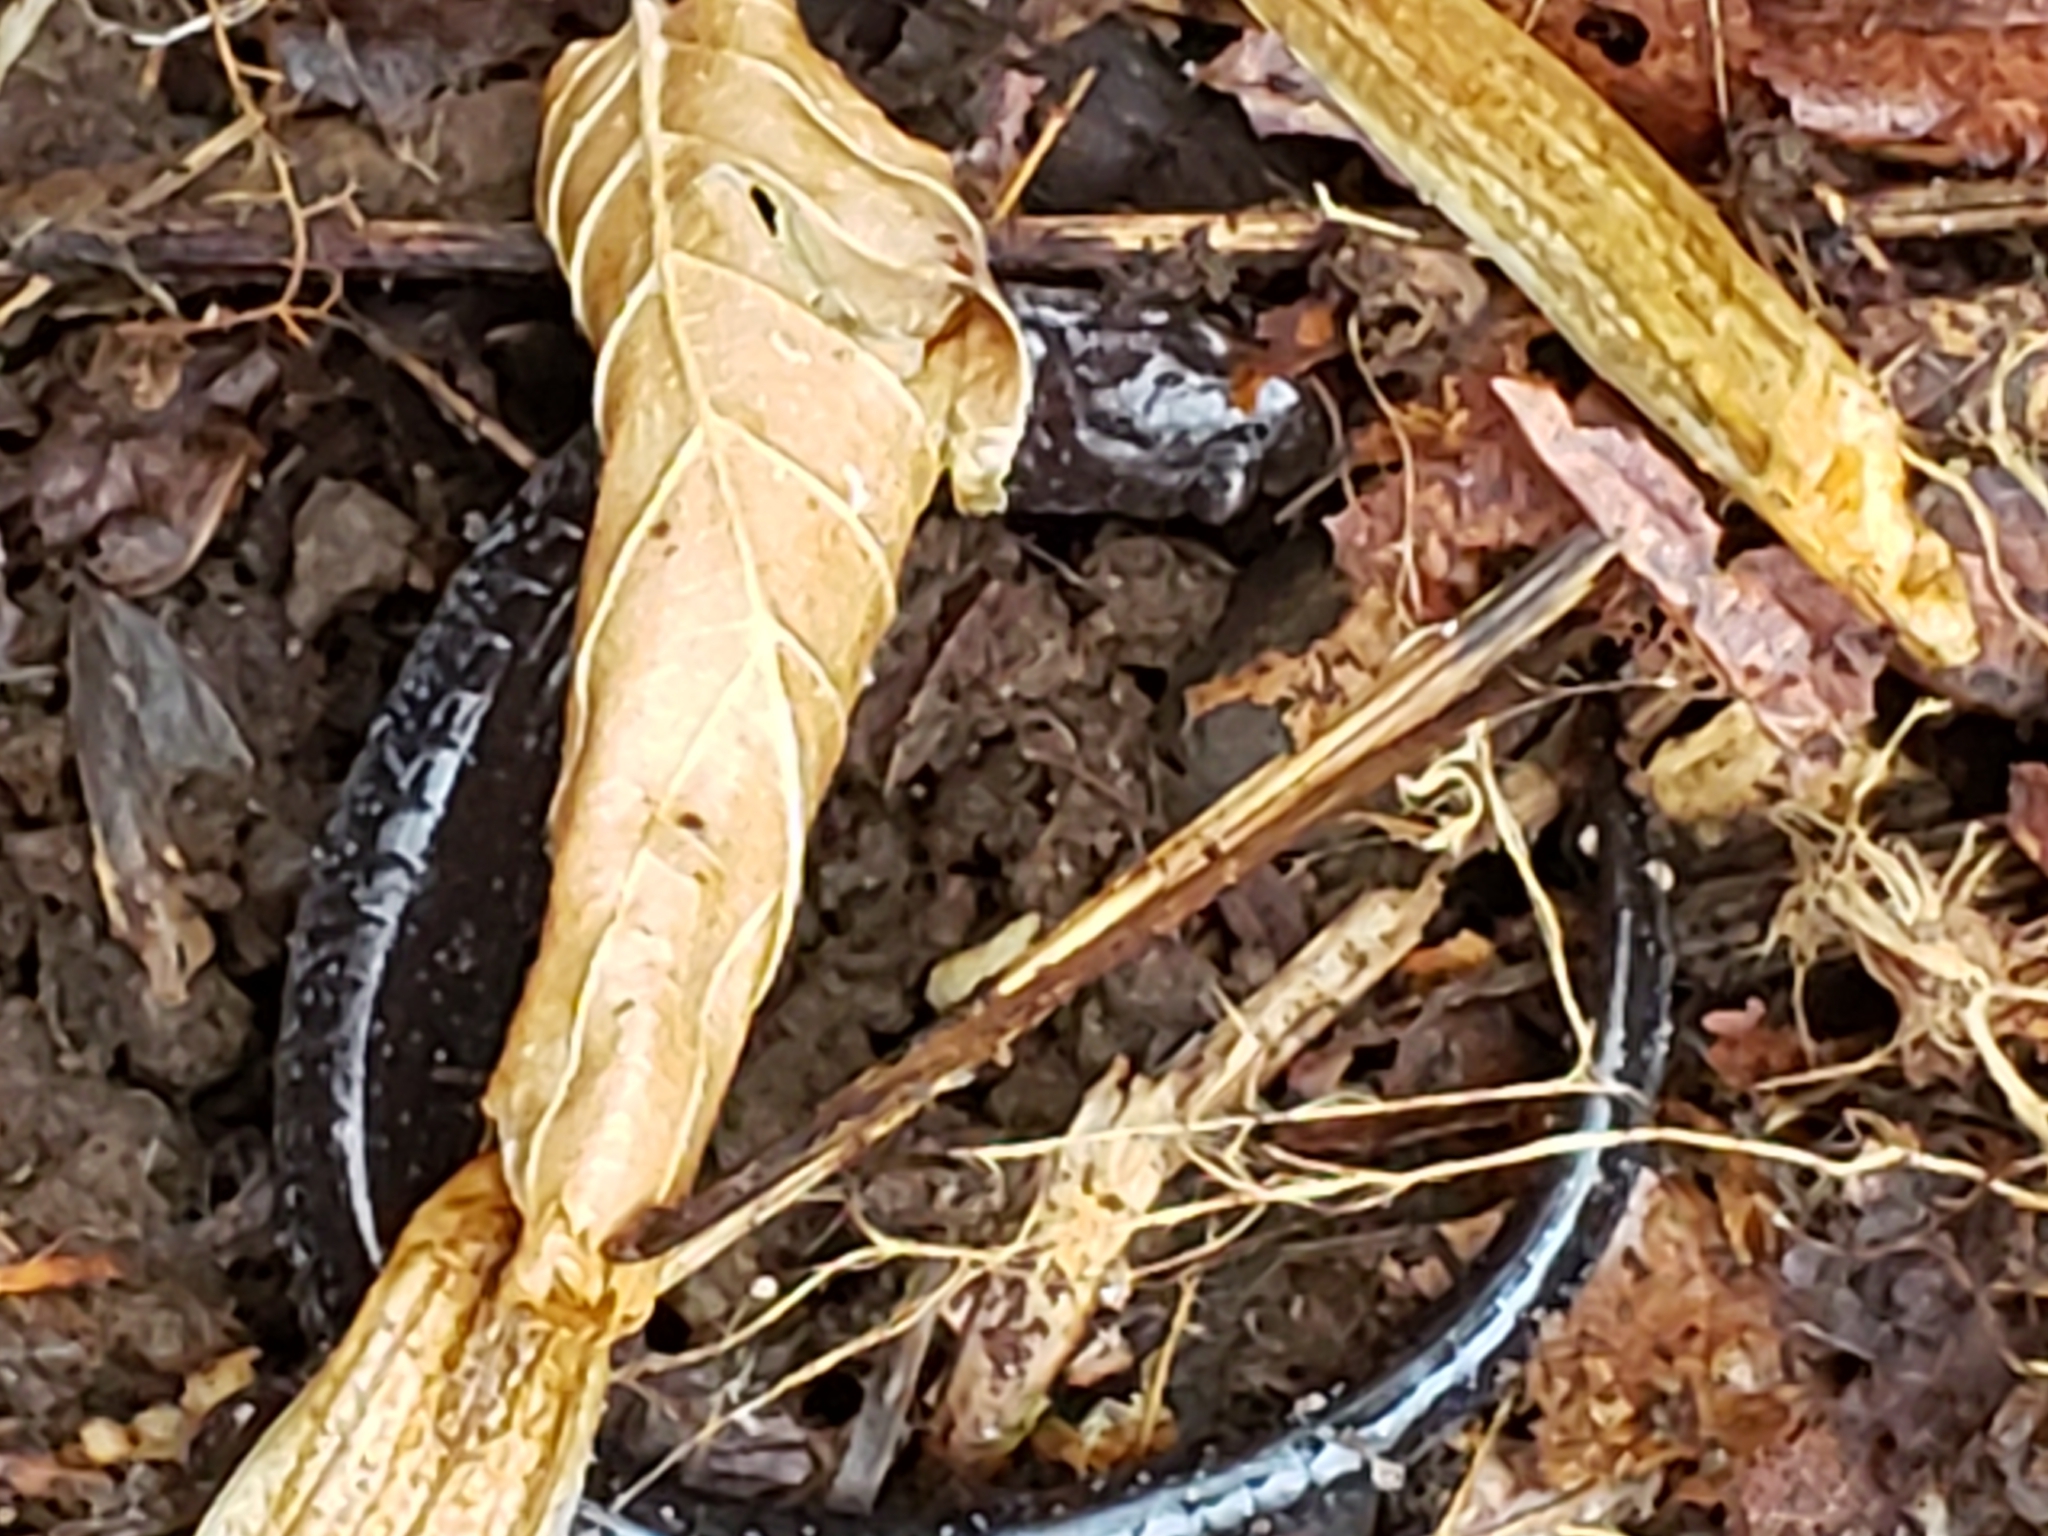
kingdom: Animalia
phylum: Chordata
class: Amphibia
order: Caudata
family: Plethodontidae
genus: Plethodon
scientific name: Plethodon cinereus
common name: Redback salamander
